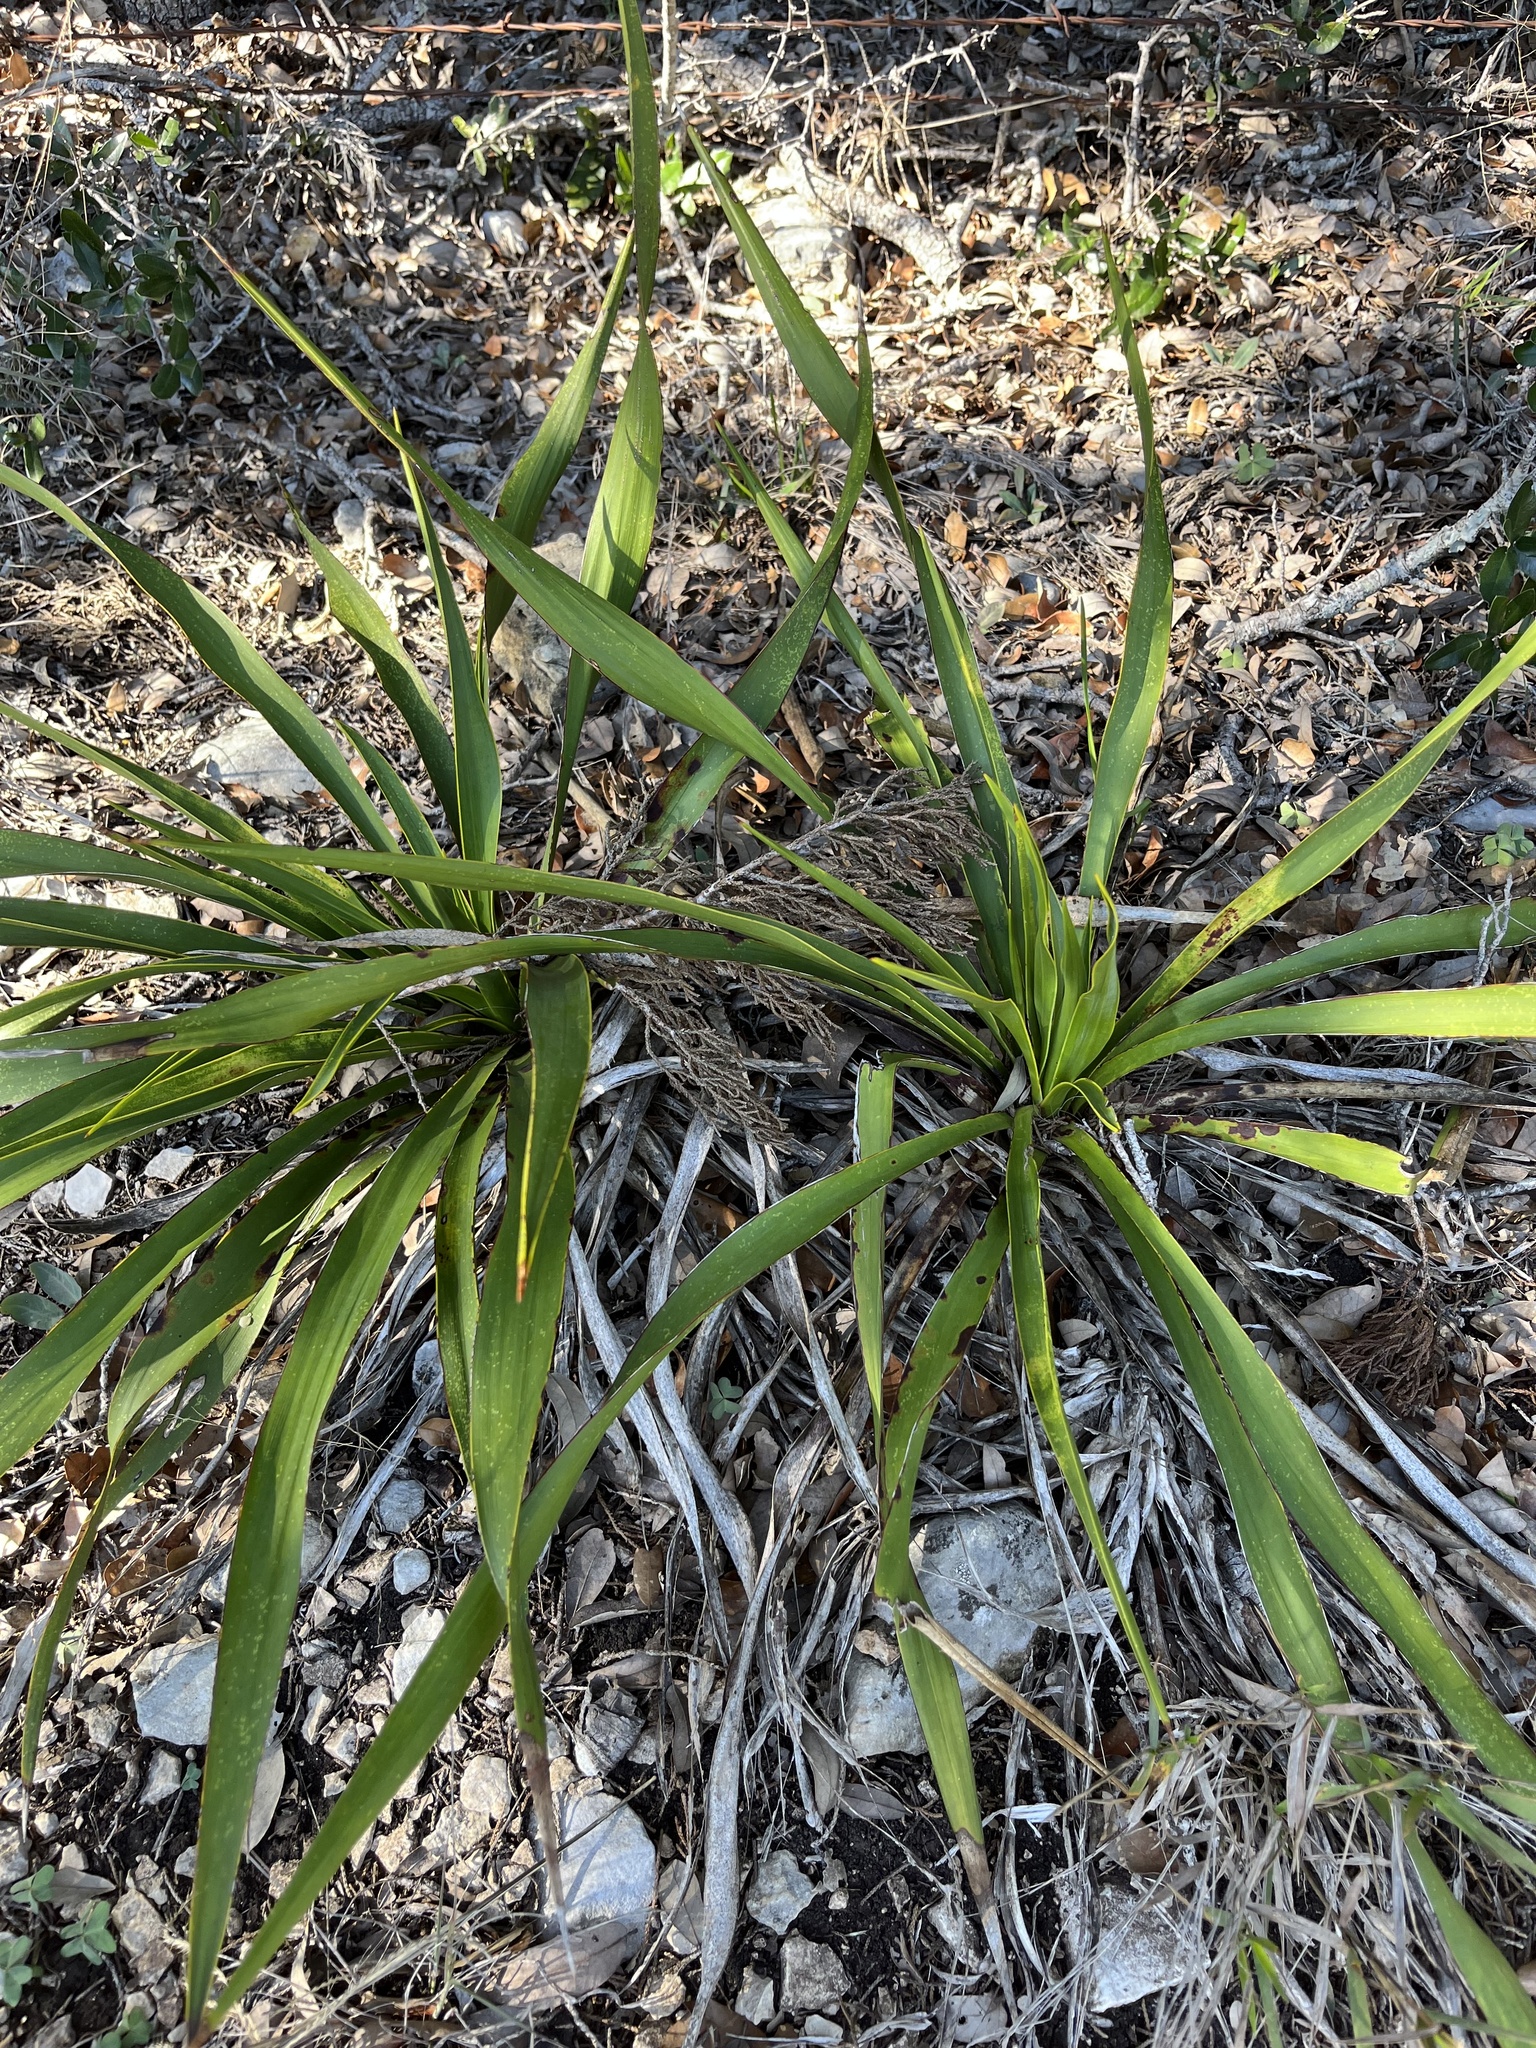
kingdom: Plantae
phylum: Tracheophyta
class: Liliopsida
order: Asparagales
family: Asparagaceae
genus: Yucca
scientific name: Yucca rupicola
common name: Twisted-leaf spanish-dagger
